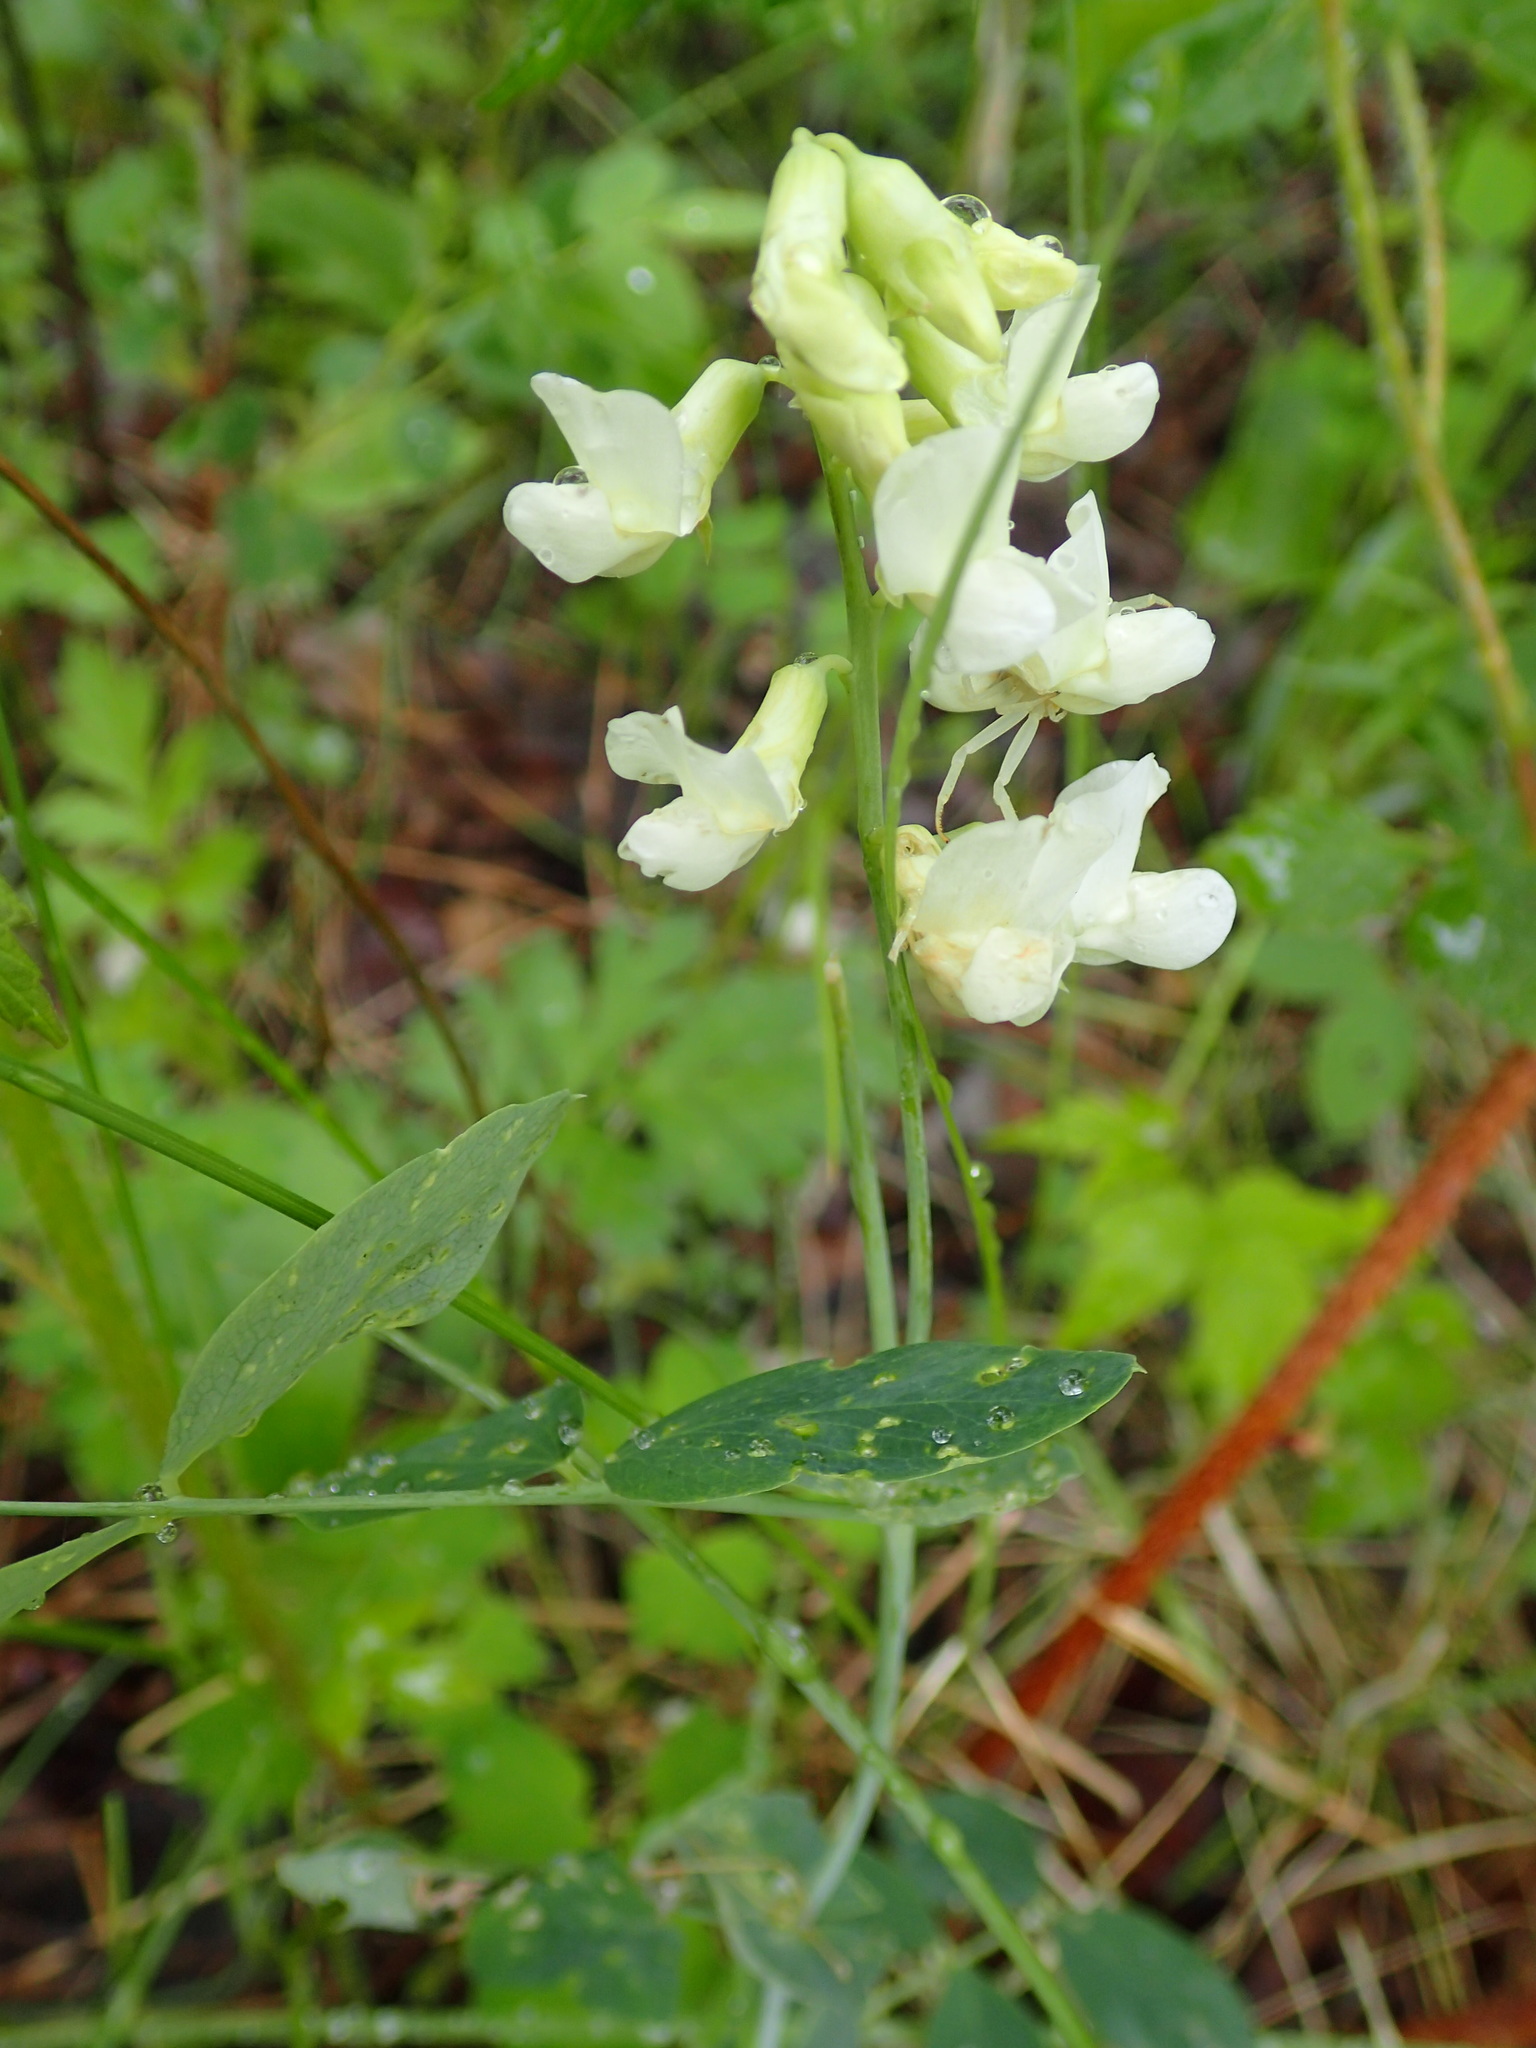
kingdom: Plantae
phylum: Tracheophyta
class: Magnoliopsida
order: Fabales
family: Fabaceae
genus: Lathyrus
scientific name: Lathyrus ochroleucus
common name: Pale vetchling
